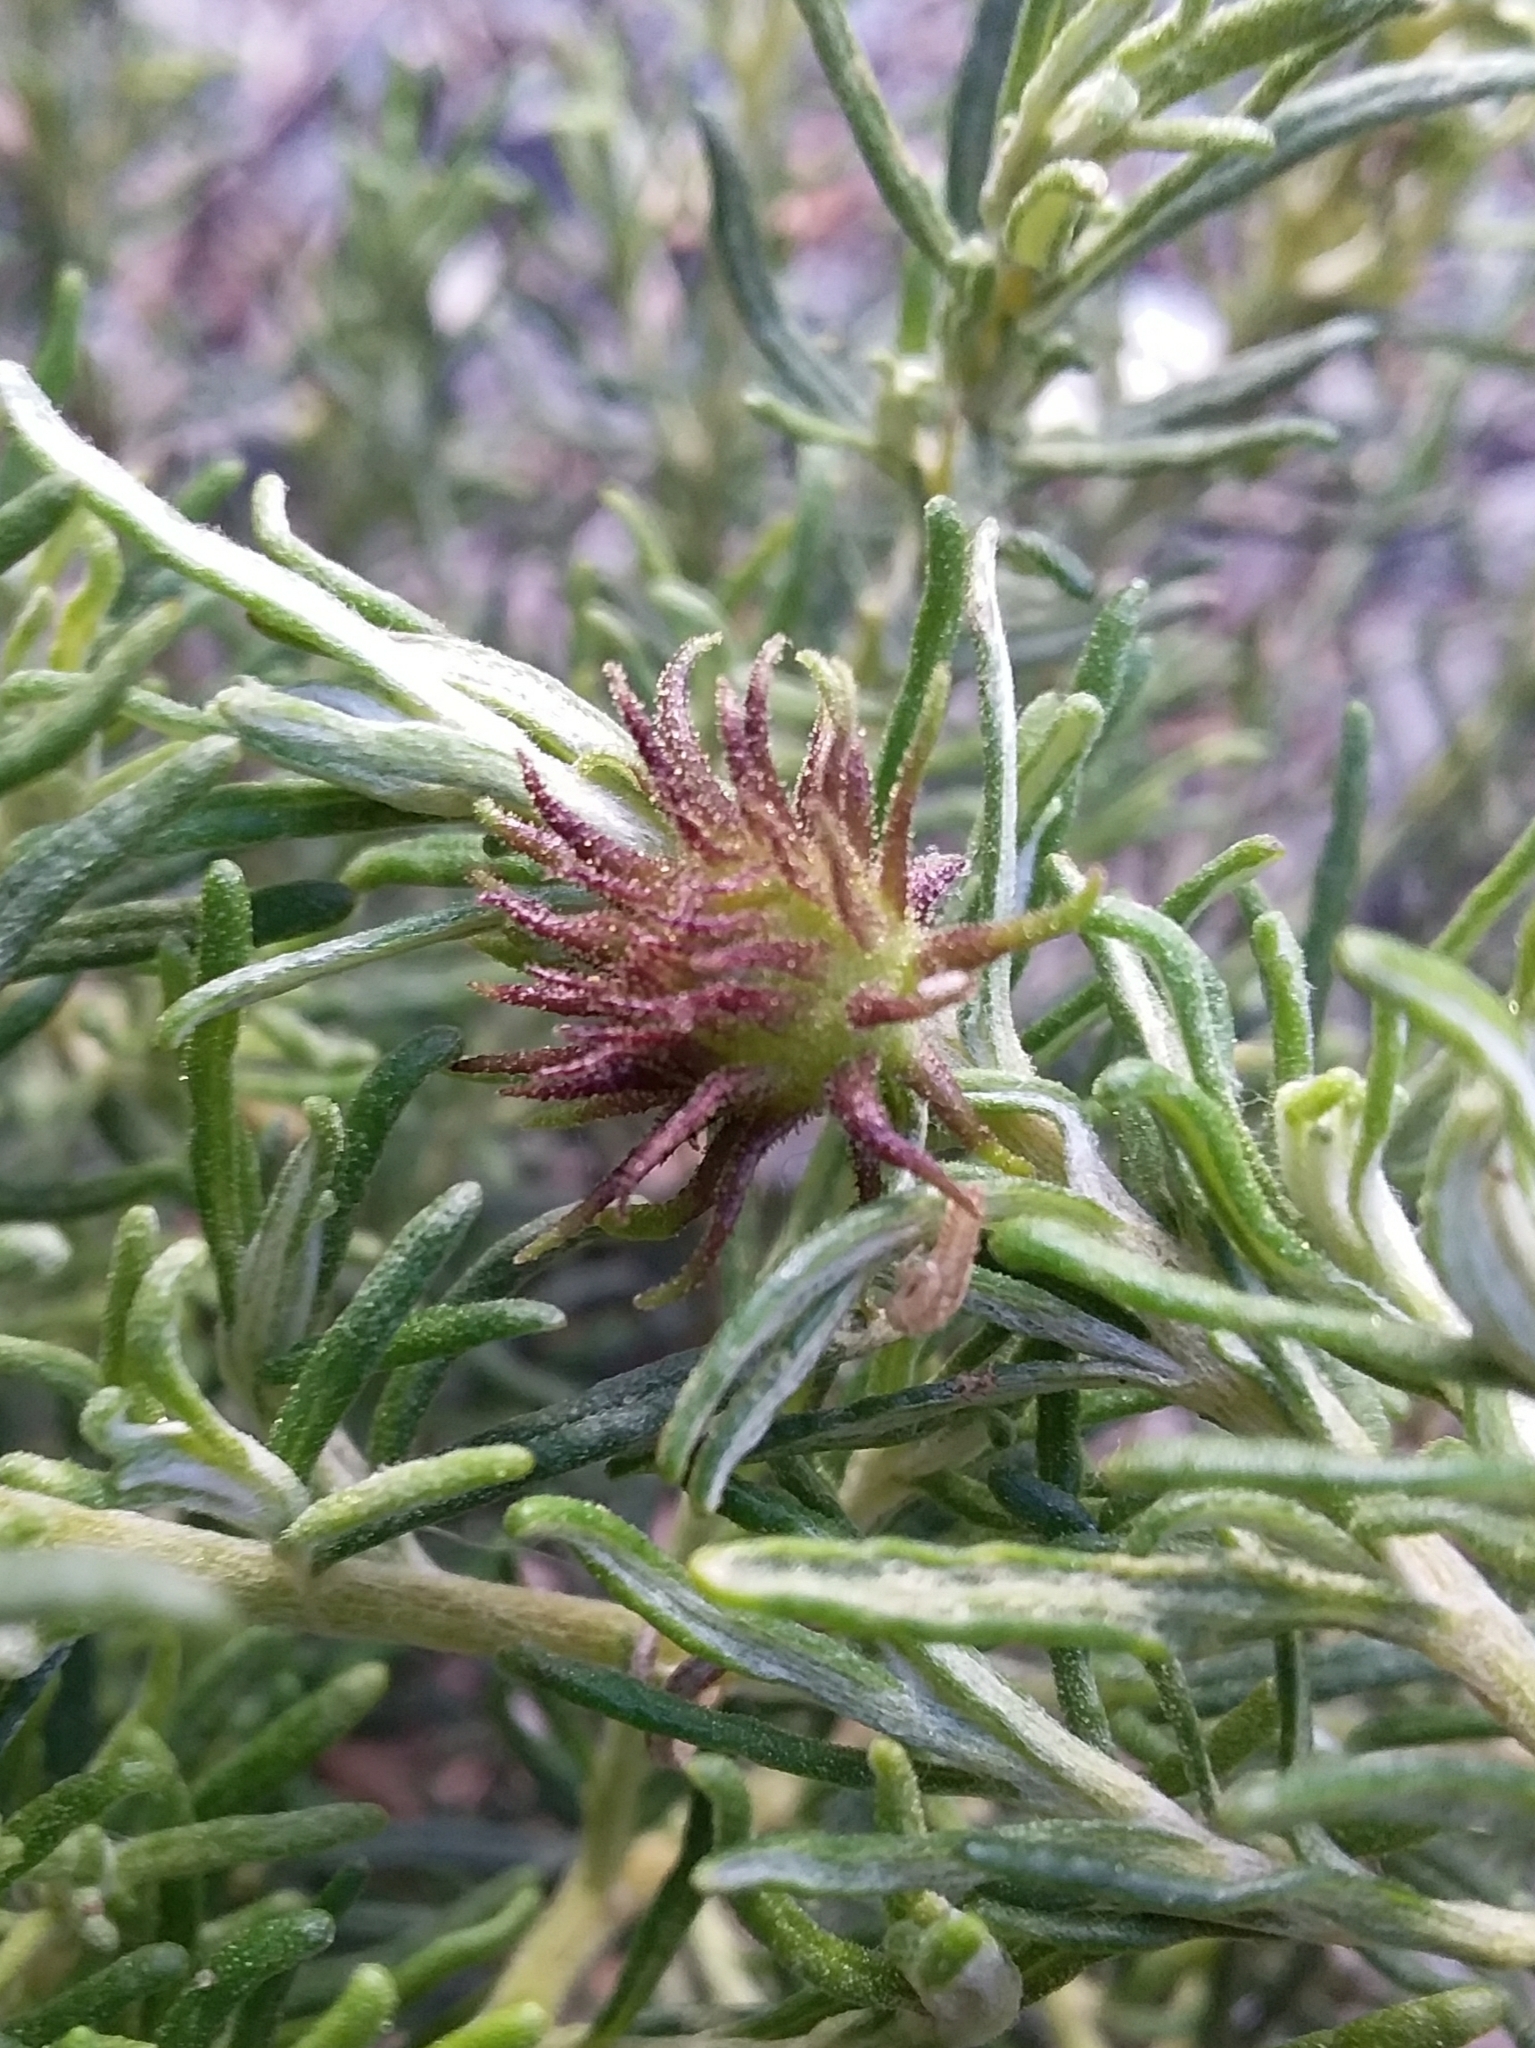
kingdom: Animalia
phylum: Arthropoda
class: Insecta
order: Diptera
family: Cecidomyiidae
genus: Trigonomyia
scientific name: Trigonomyia ananas
